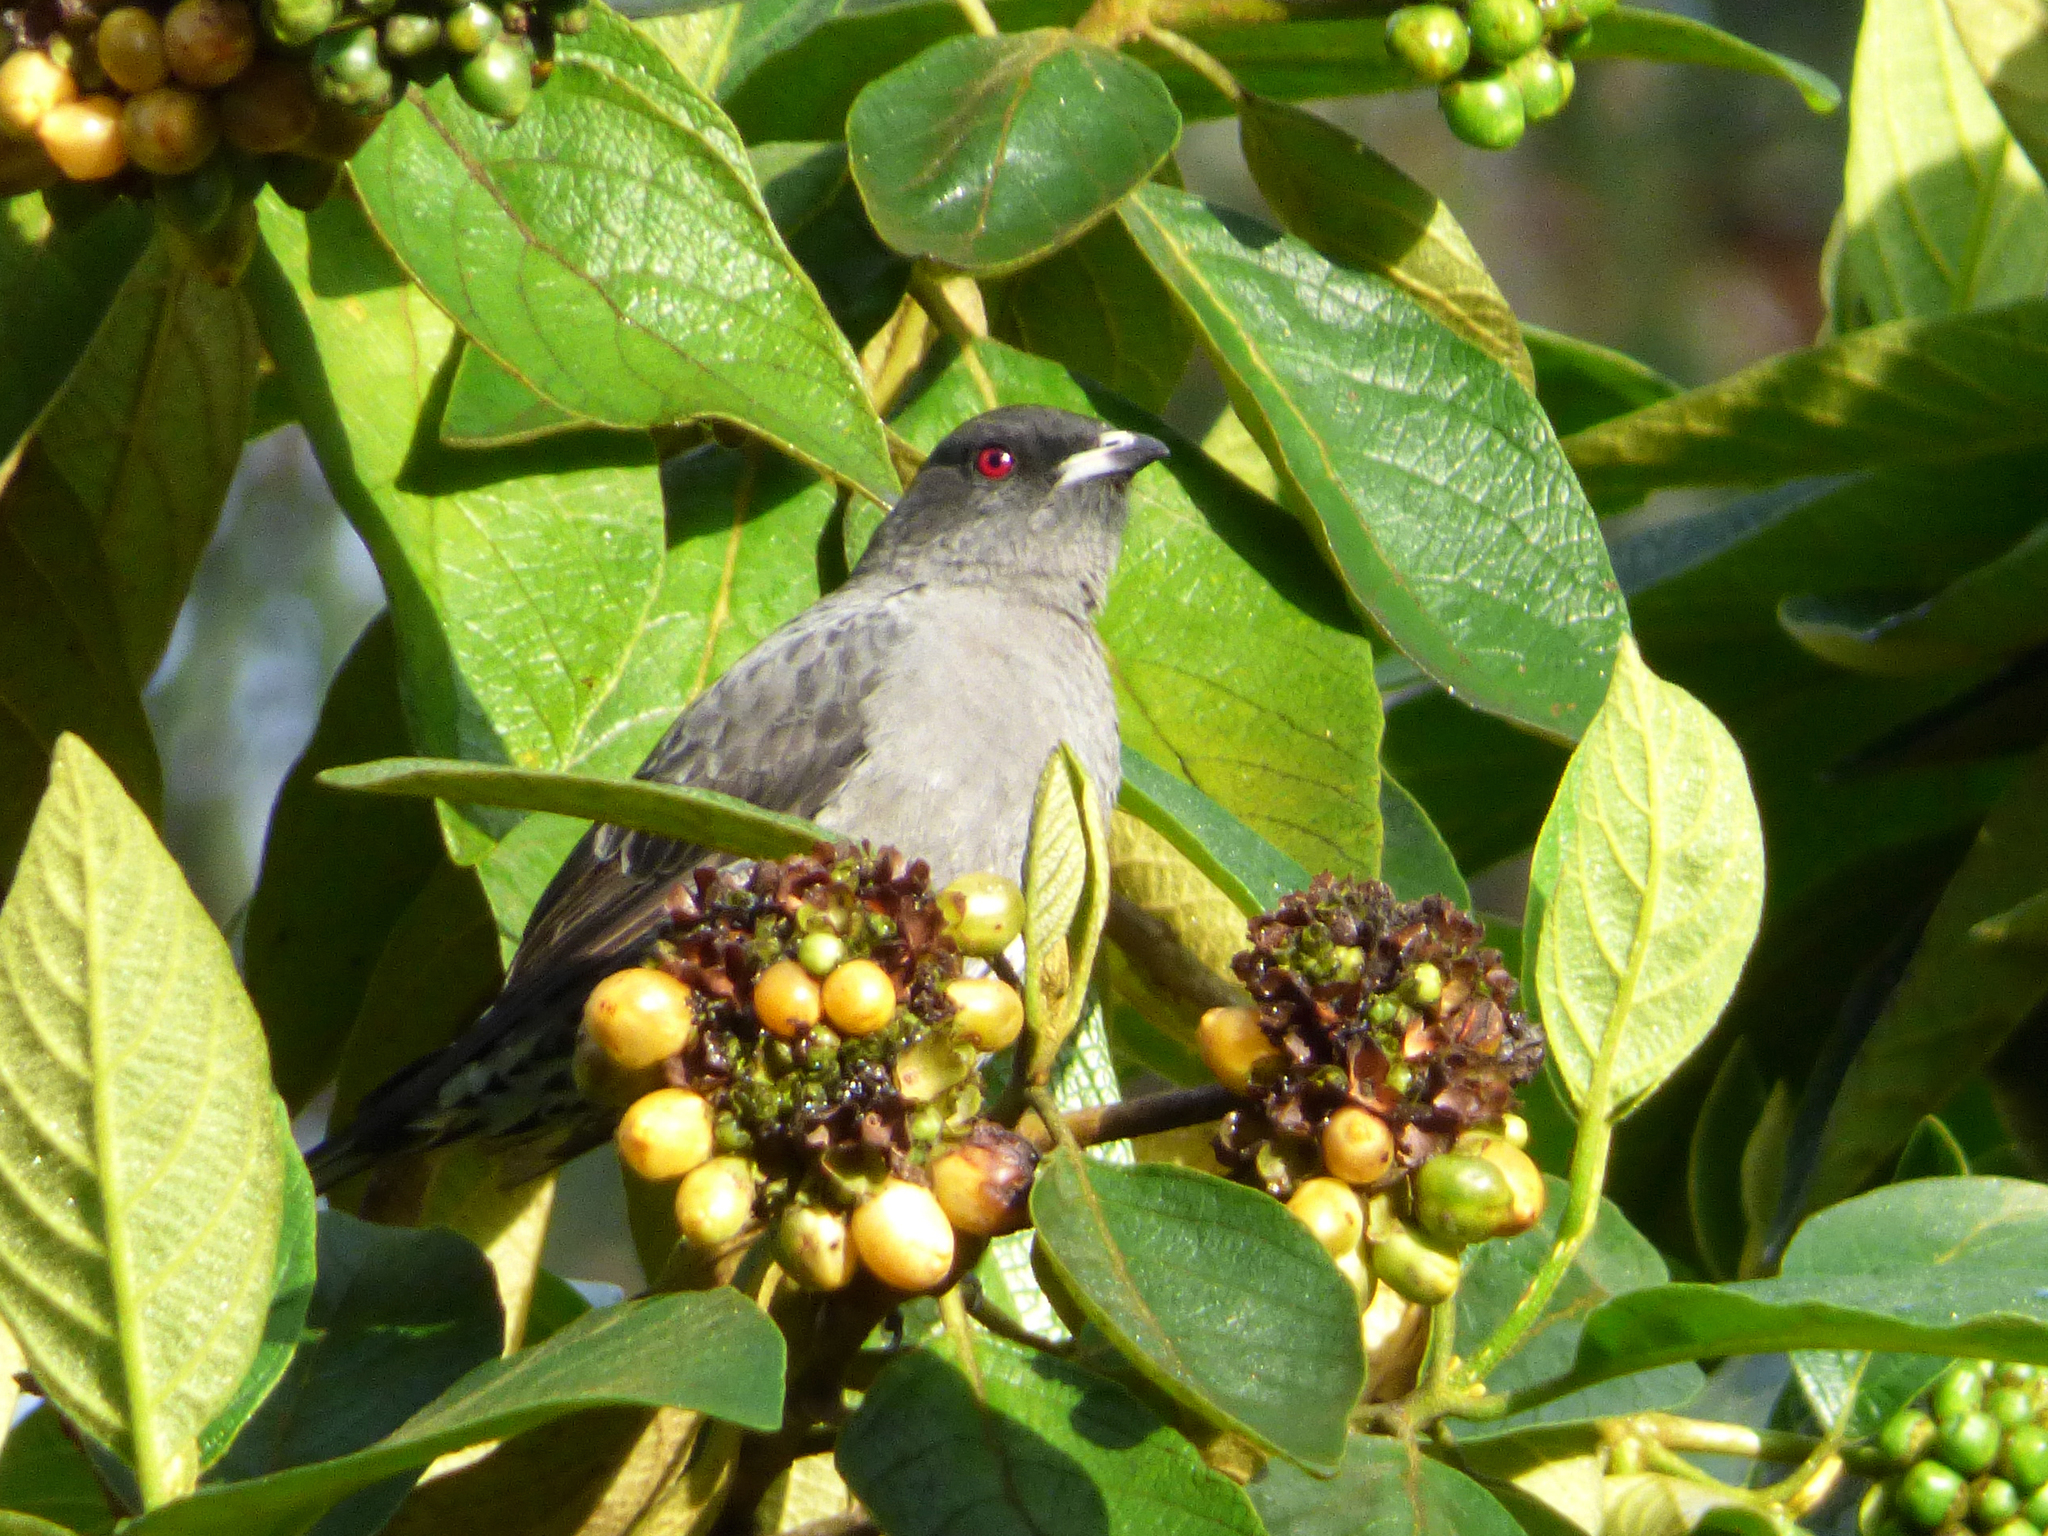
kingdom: Animalia
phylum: Chordata
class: Aves
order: Passeriformes
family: Cotingidae
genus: Ampelion
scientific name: Ampelion rubrocristatus
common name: Red-crested cotinga
